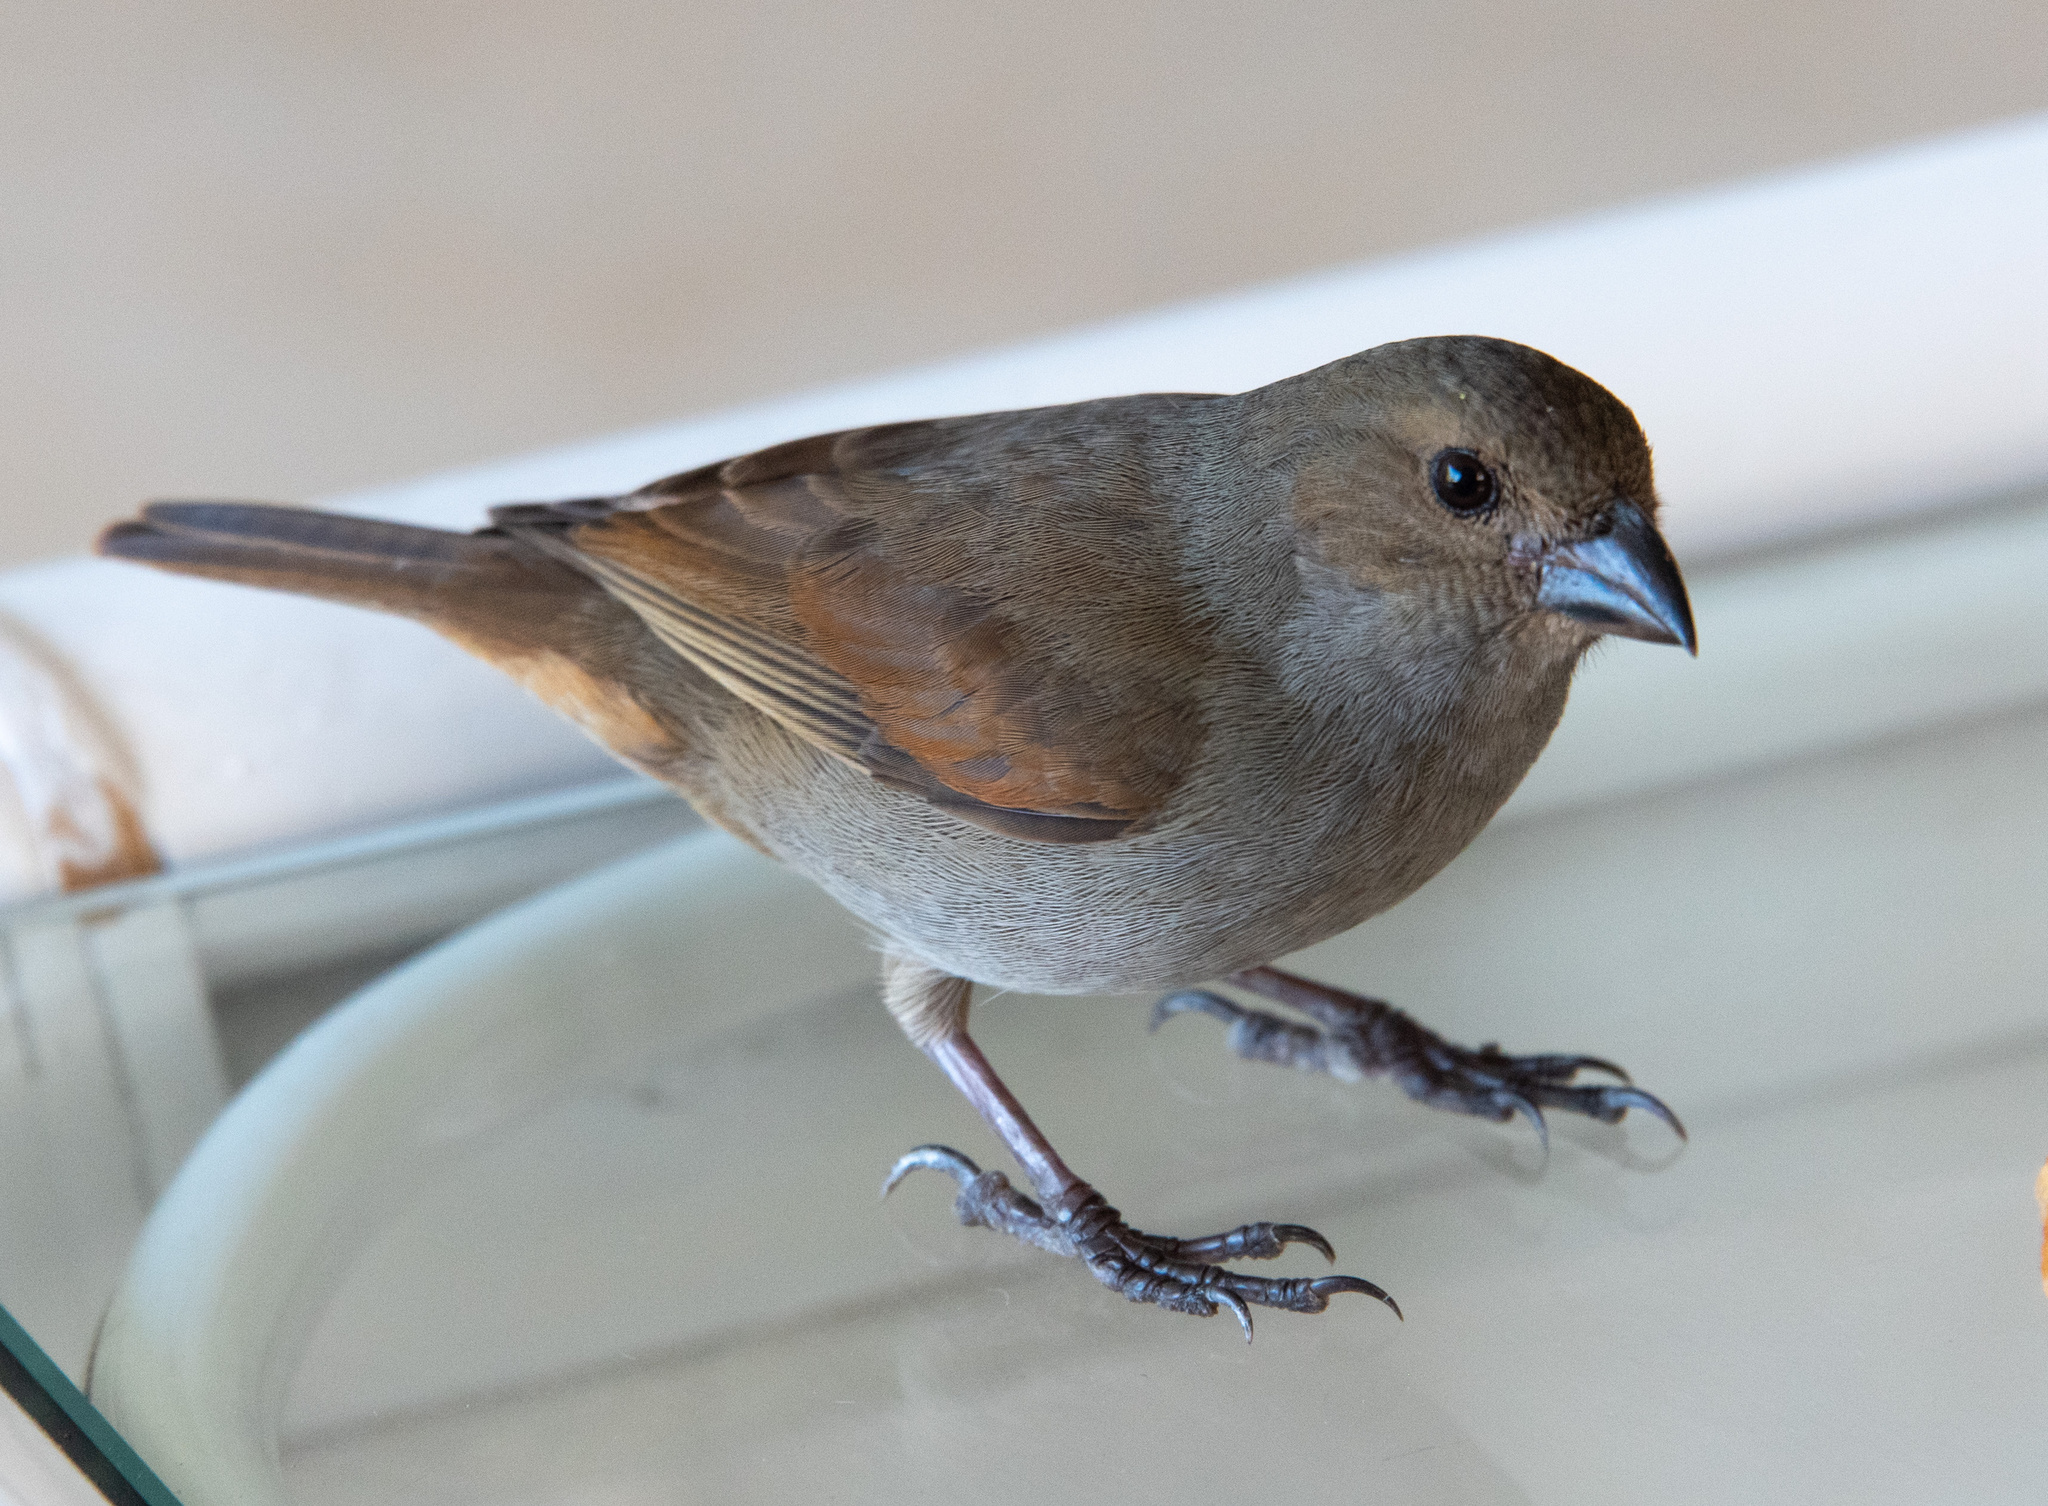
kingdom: Animalia
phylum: Chordata
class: Aves
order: Passeriformes
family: Thraupidae
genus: Loxigilla
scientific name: Loxigilla barbadensis
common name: Barbados bullfinch
